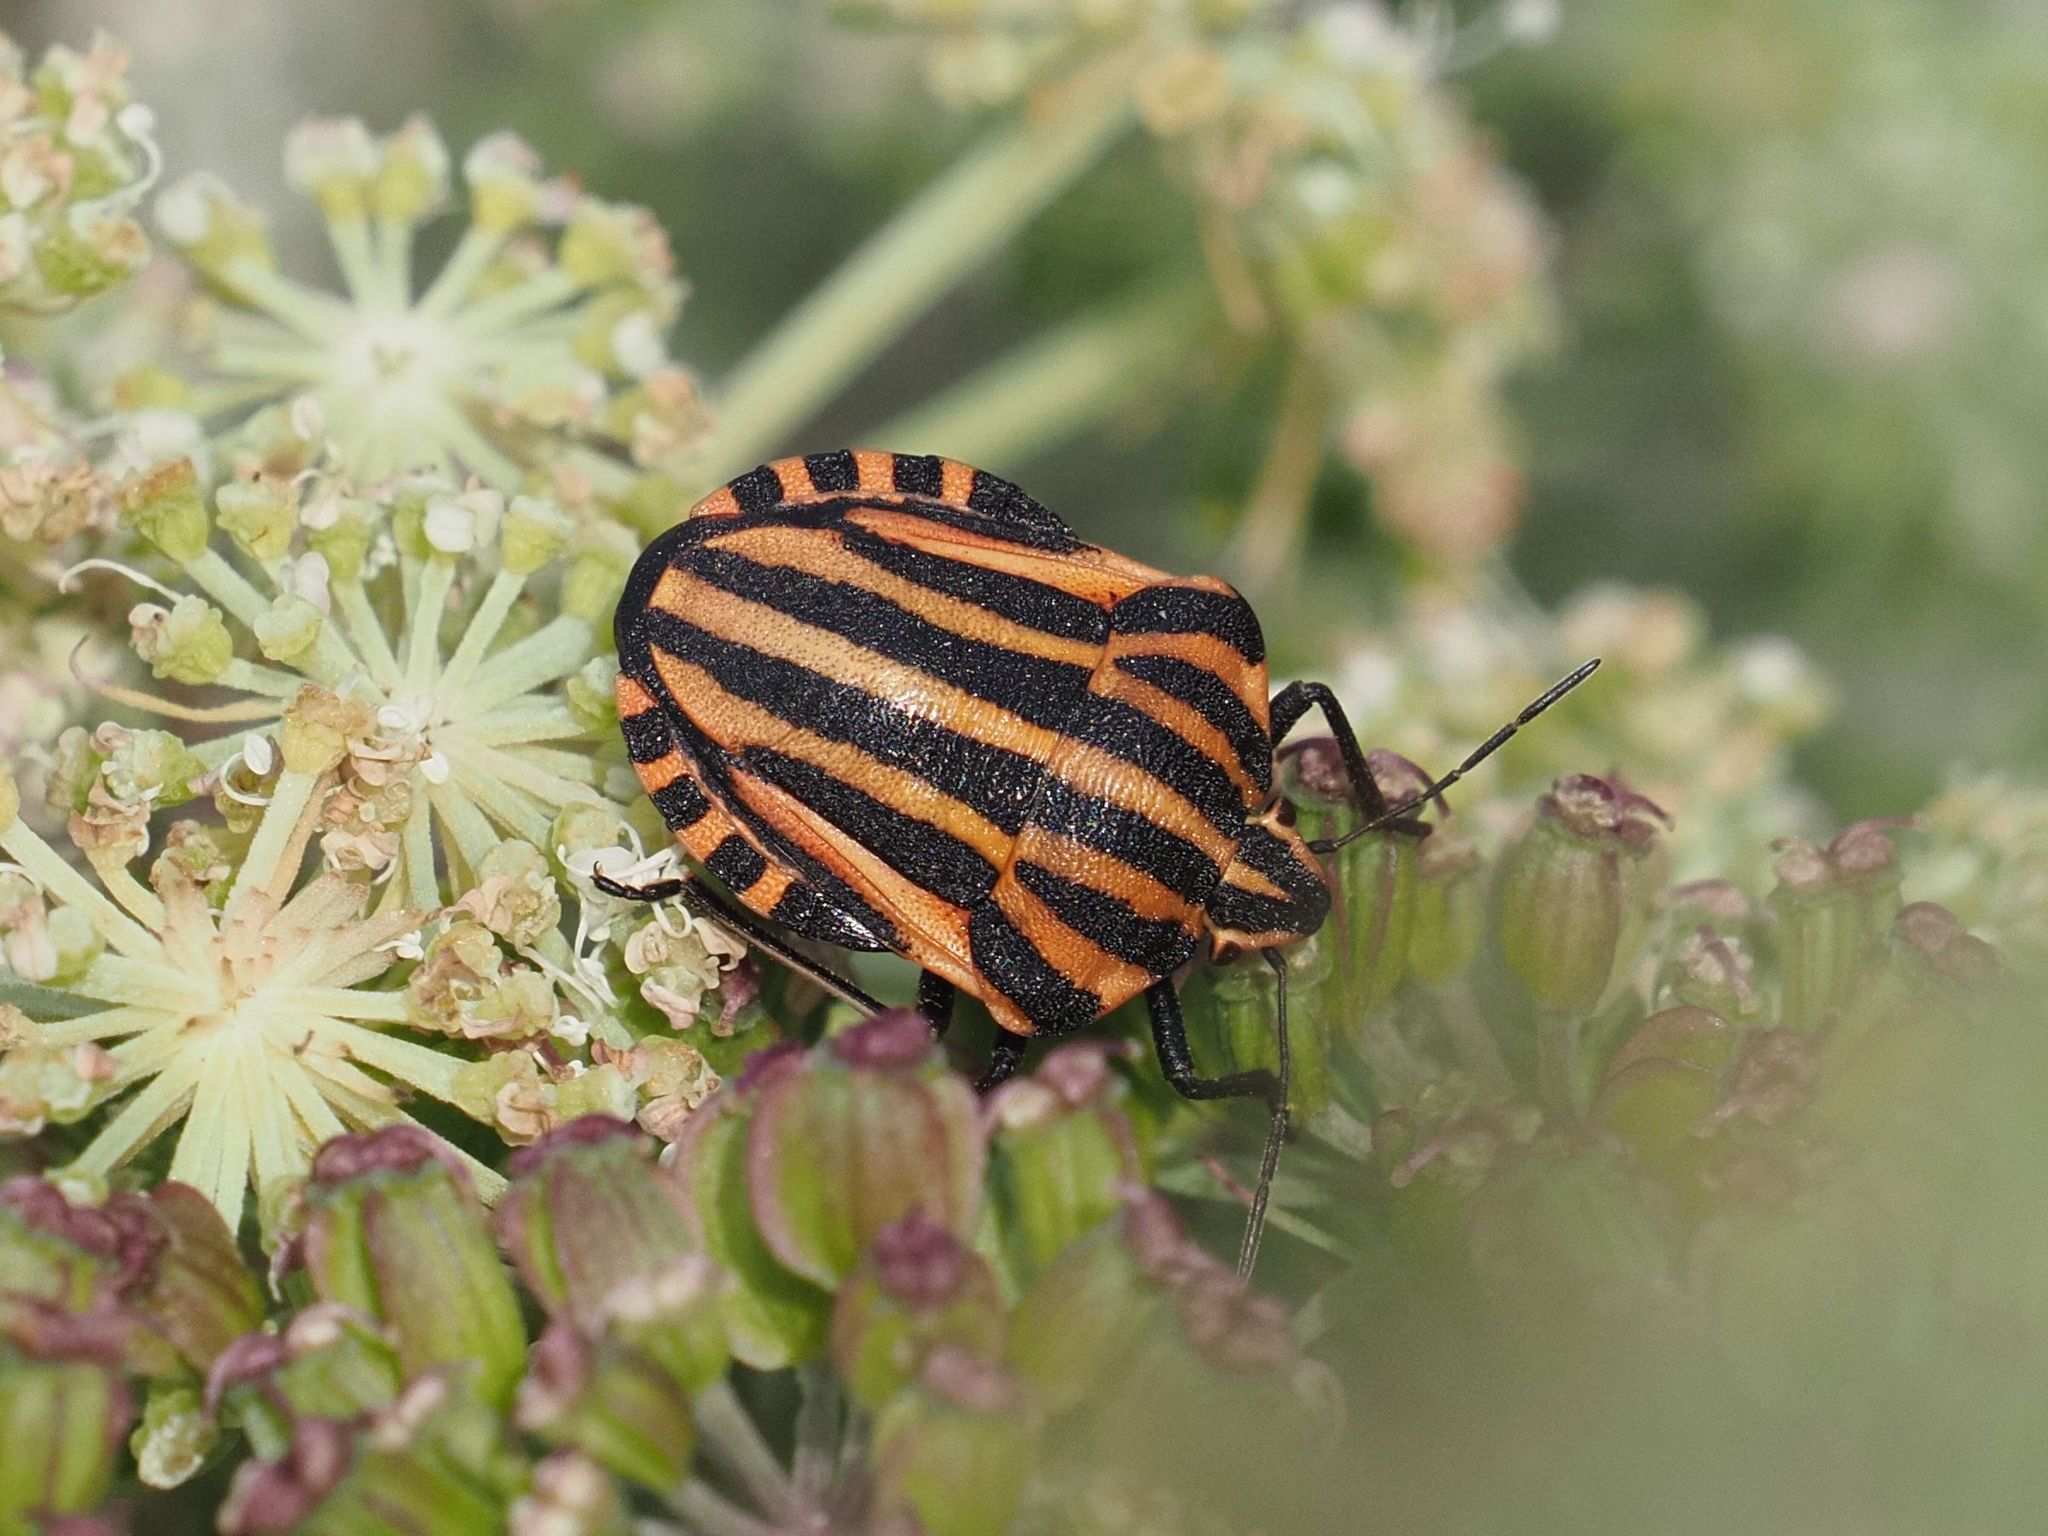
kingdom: Animalia
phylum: Arthropoda
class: Insecta
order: Hemiptera
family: Pentatomidae
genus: Graphosoma
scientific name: Graphosoma italicum
